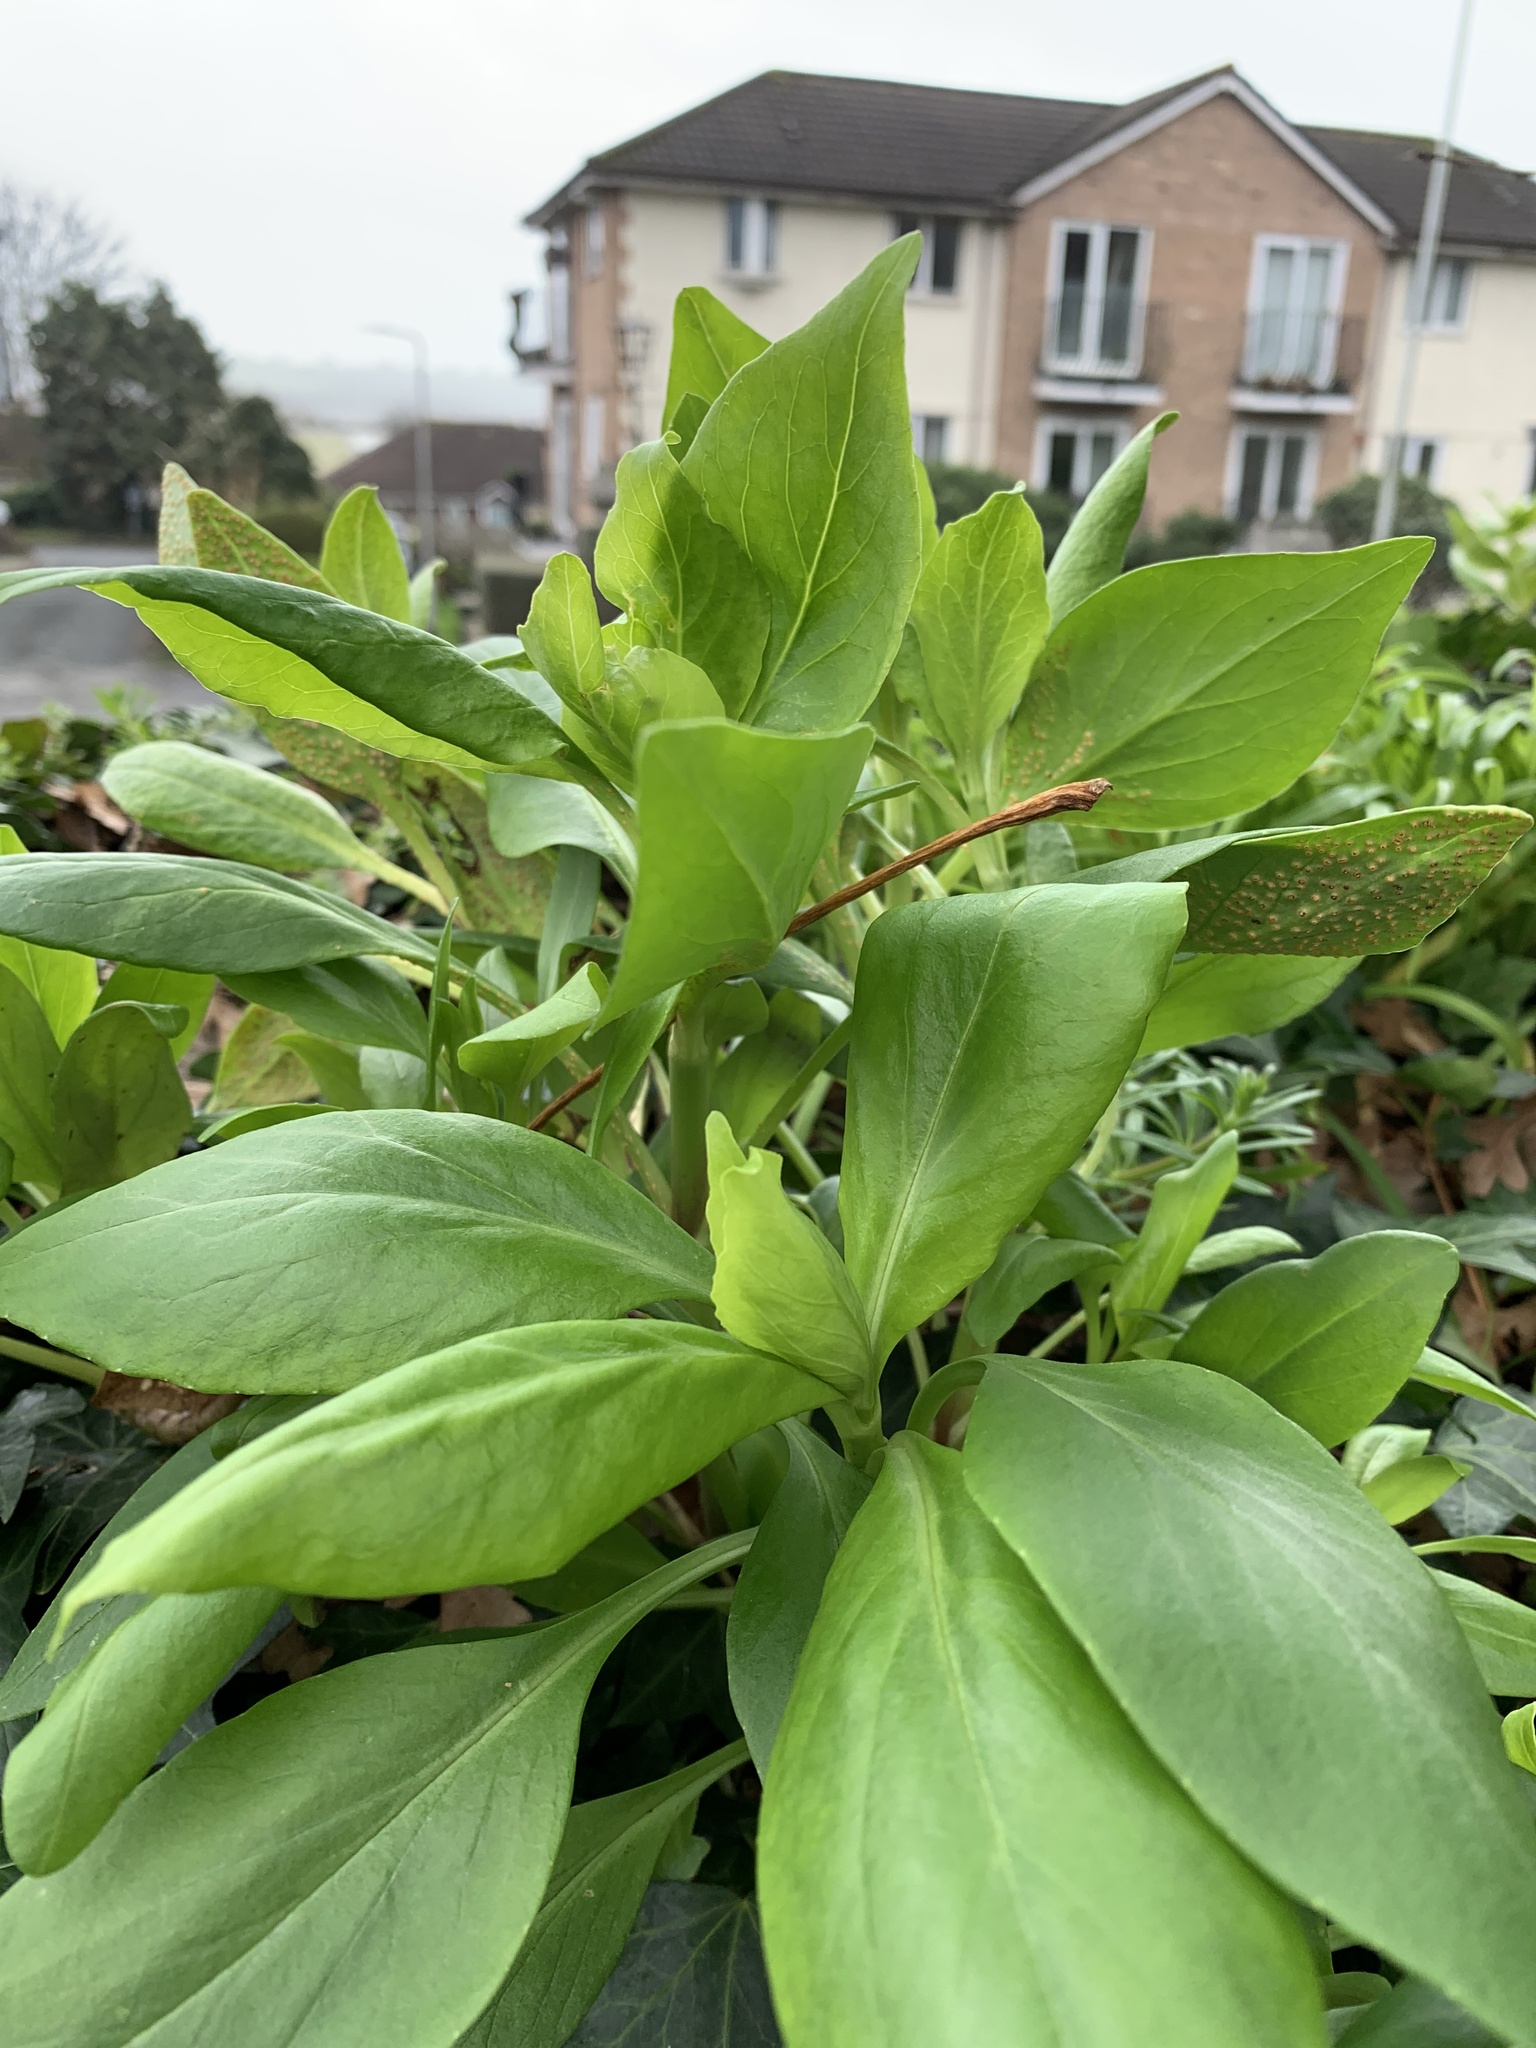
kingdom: Plantae
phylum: Tracheophyta
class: Magnoliopsida
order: Dipsacales
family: Caprifoliaceae
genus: Centranthus
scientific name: Centranthus ruber
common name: Red valerian
